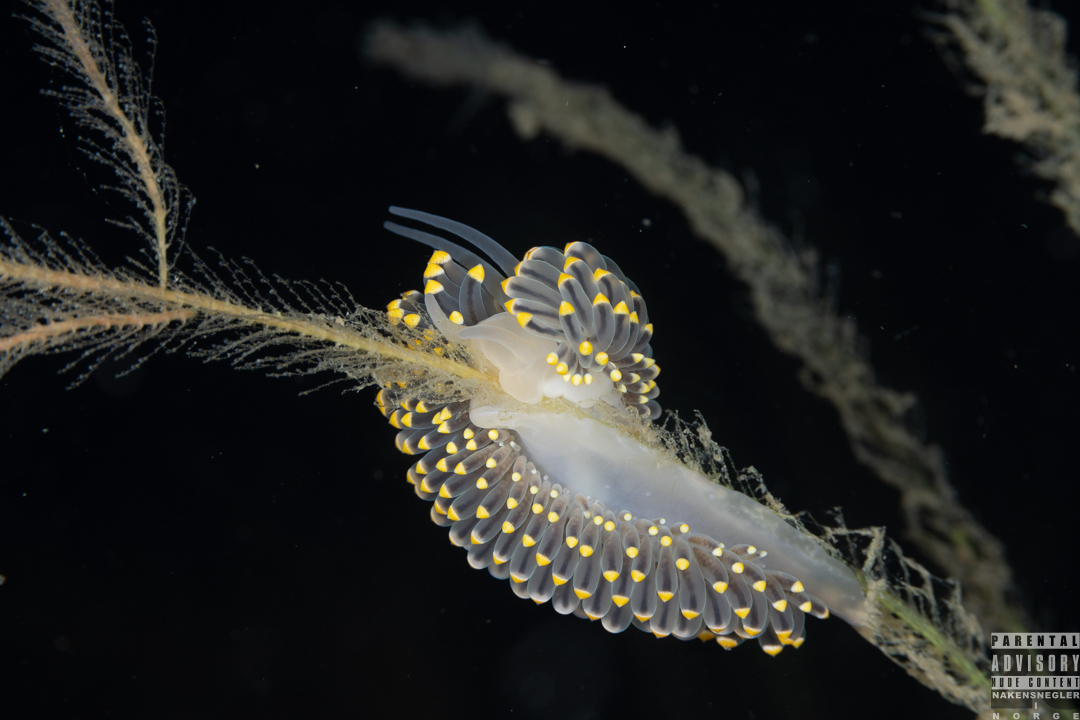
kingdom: Animalia
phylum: Mollusca
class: Gastropoda
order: Nudibranchia
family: Eubranchidae
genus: Eubranchus
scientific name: Eubranchus tricolor
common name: Painted balloon aeolis
